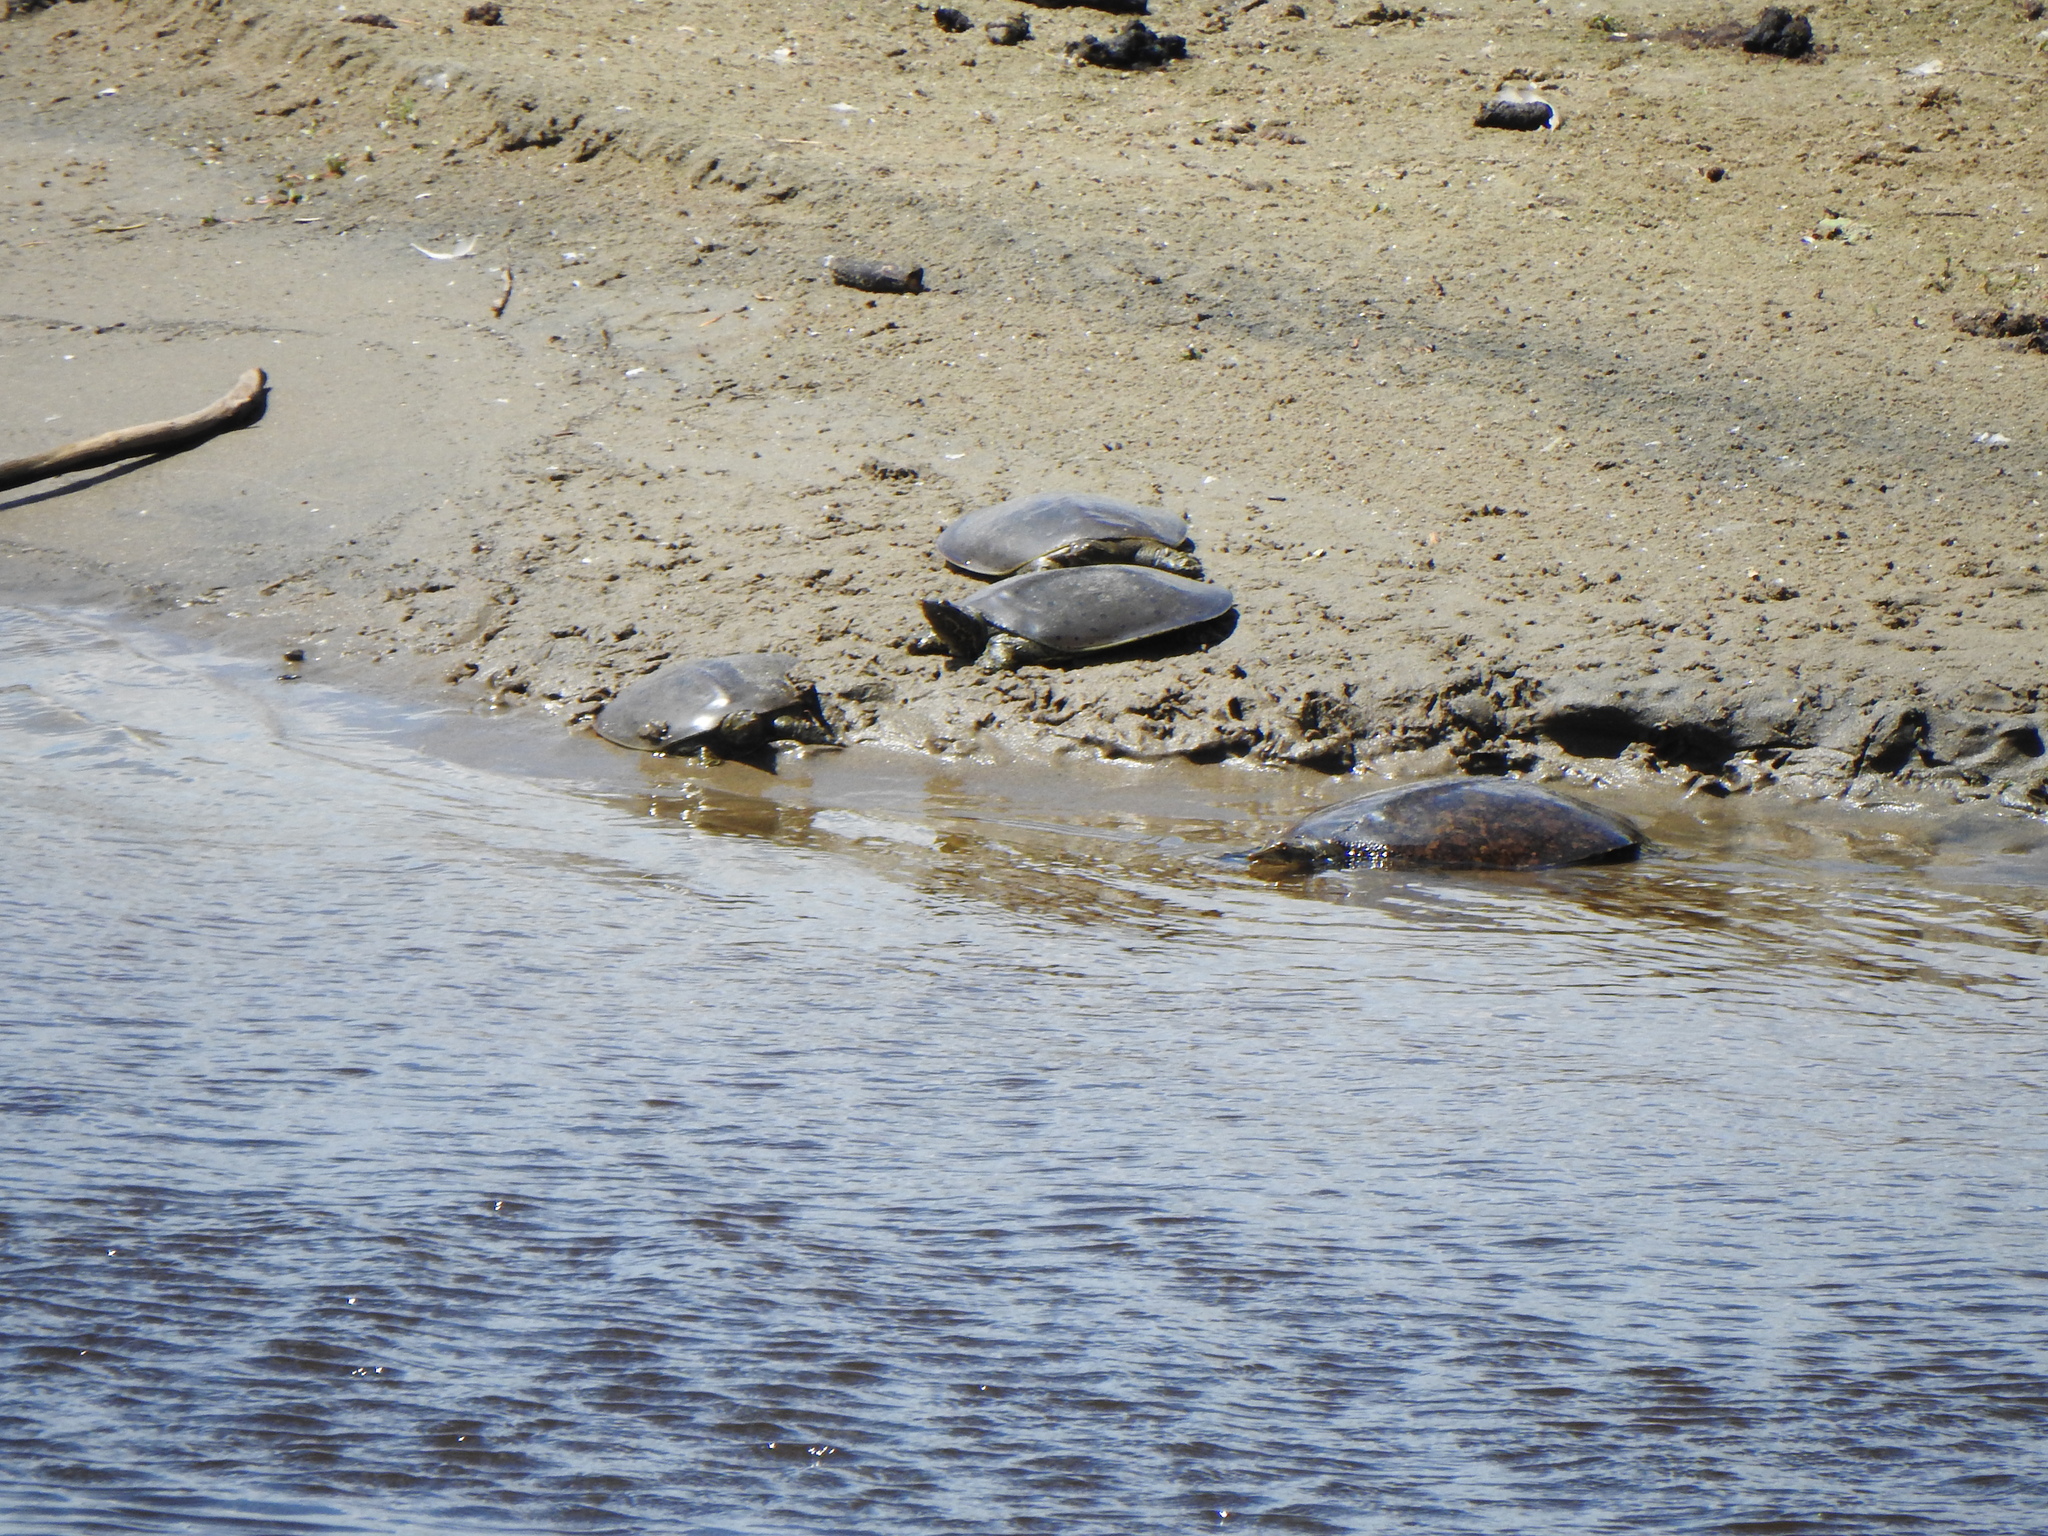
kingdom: Animalia
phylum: Chordata
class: Testudines
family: Trionychidae
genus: Apalone
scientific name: Apalone spinifera
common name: Spiny softshell turtle
